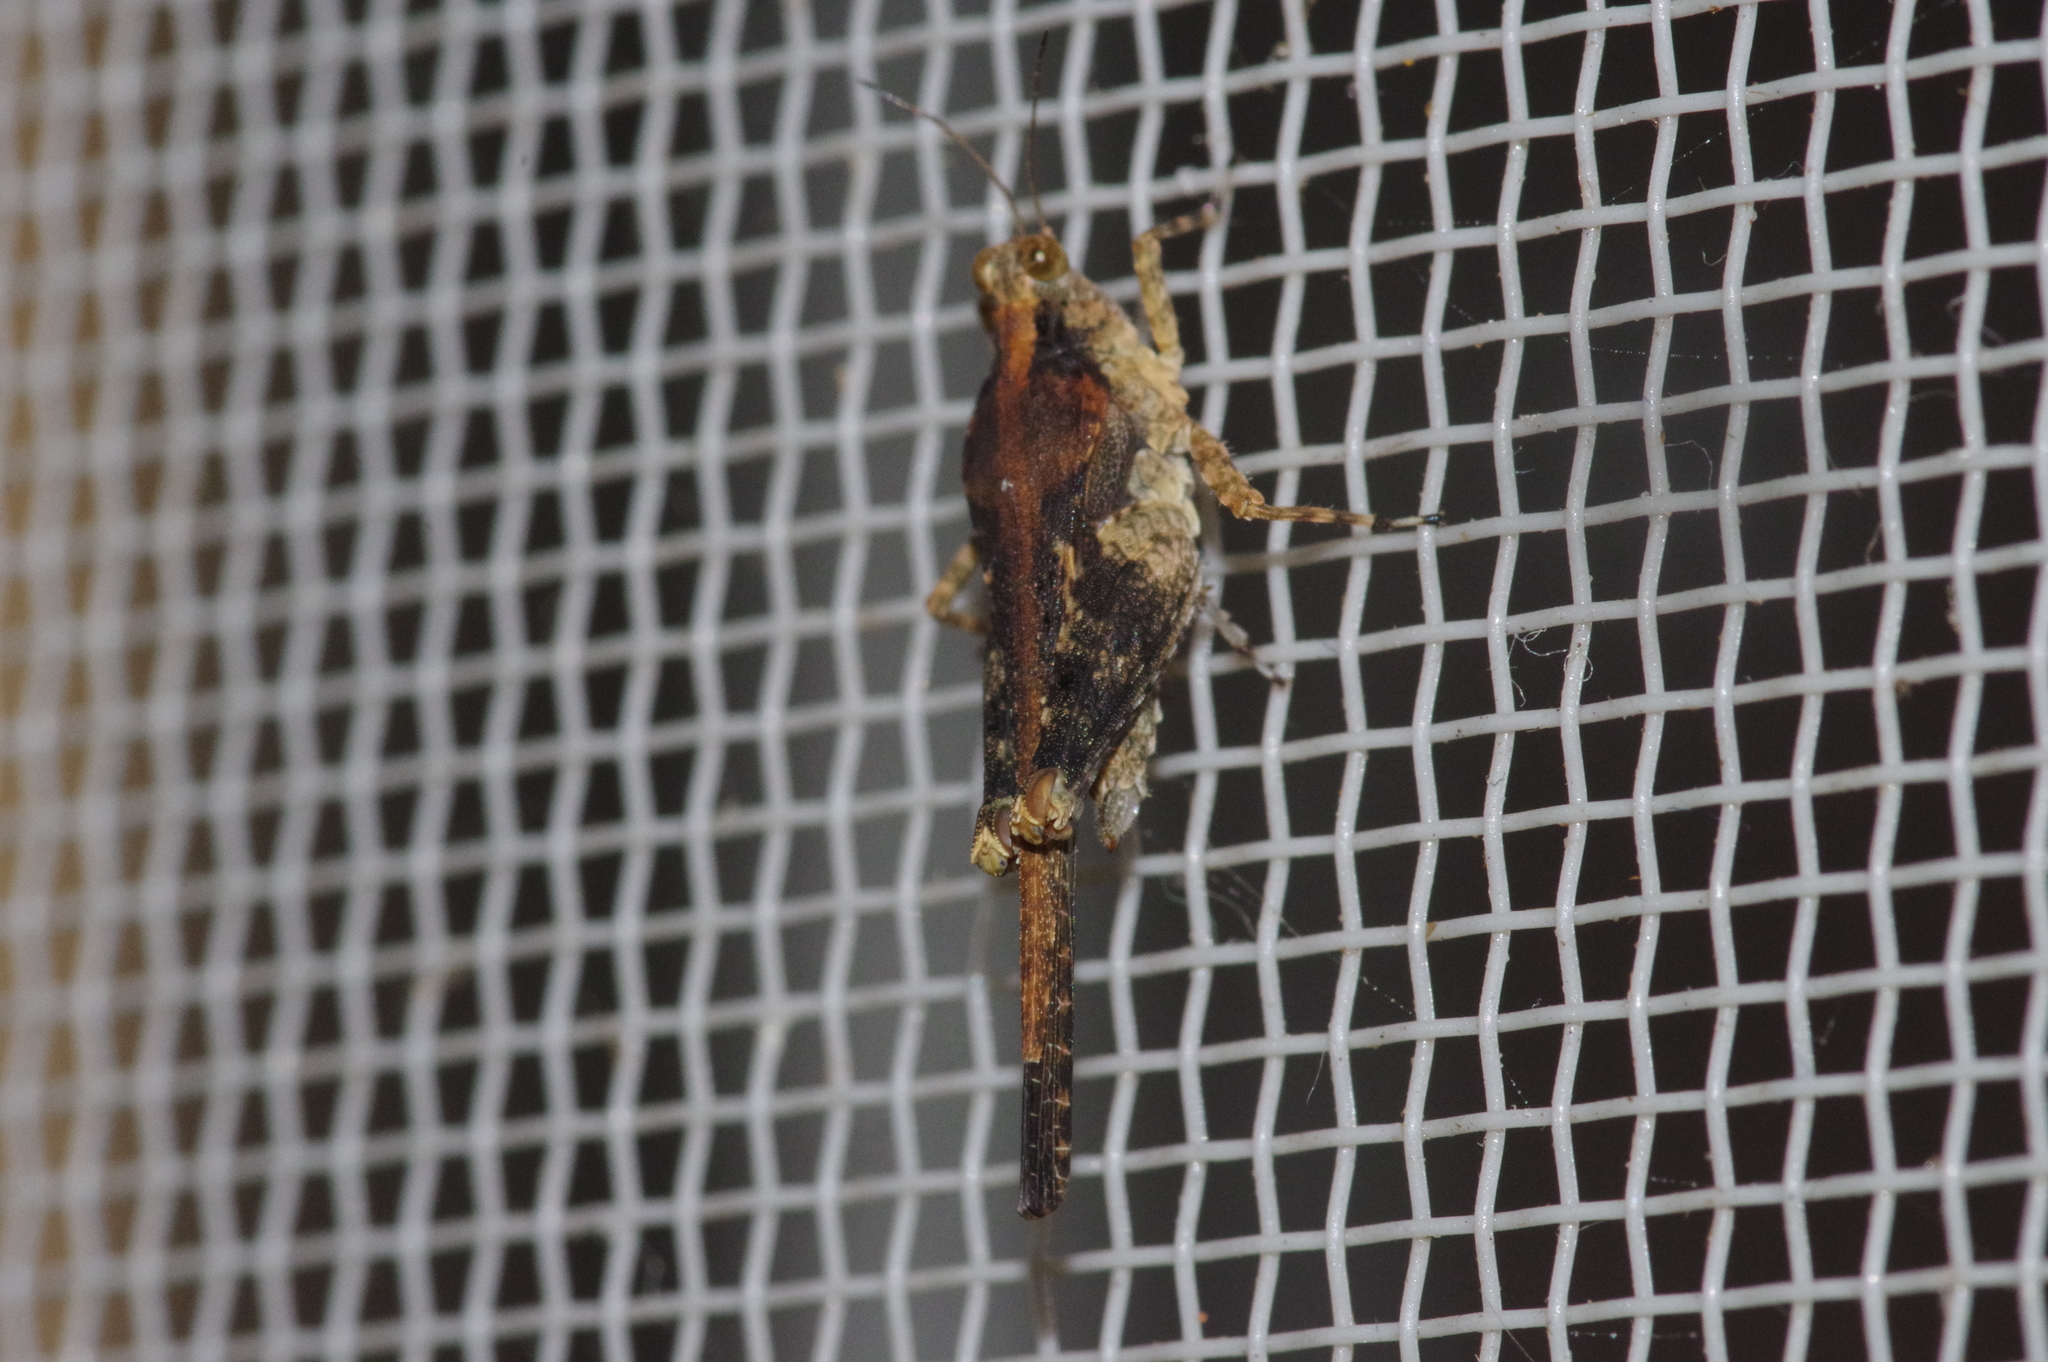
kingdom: Animalia
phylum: Arthropoda
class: Insecta
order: Orthoptera
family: Tetrigidae
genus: Paratettix
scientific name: Paratettix histricus
